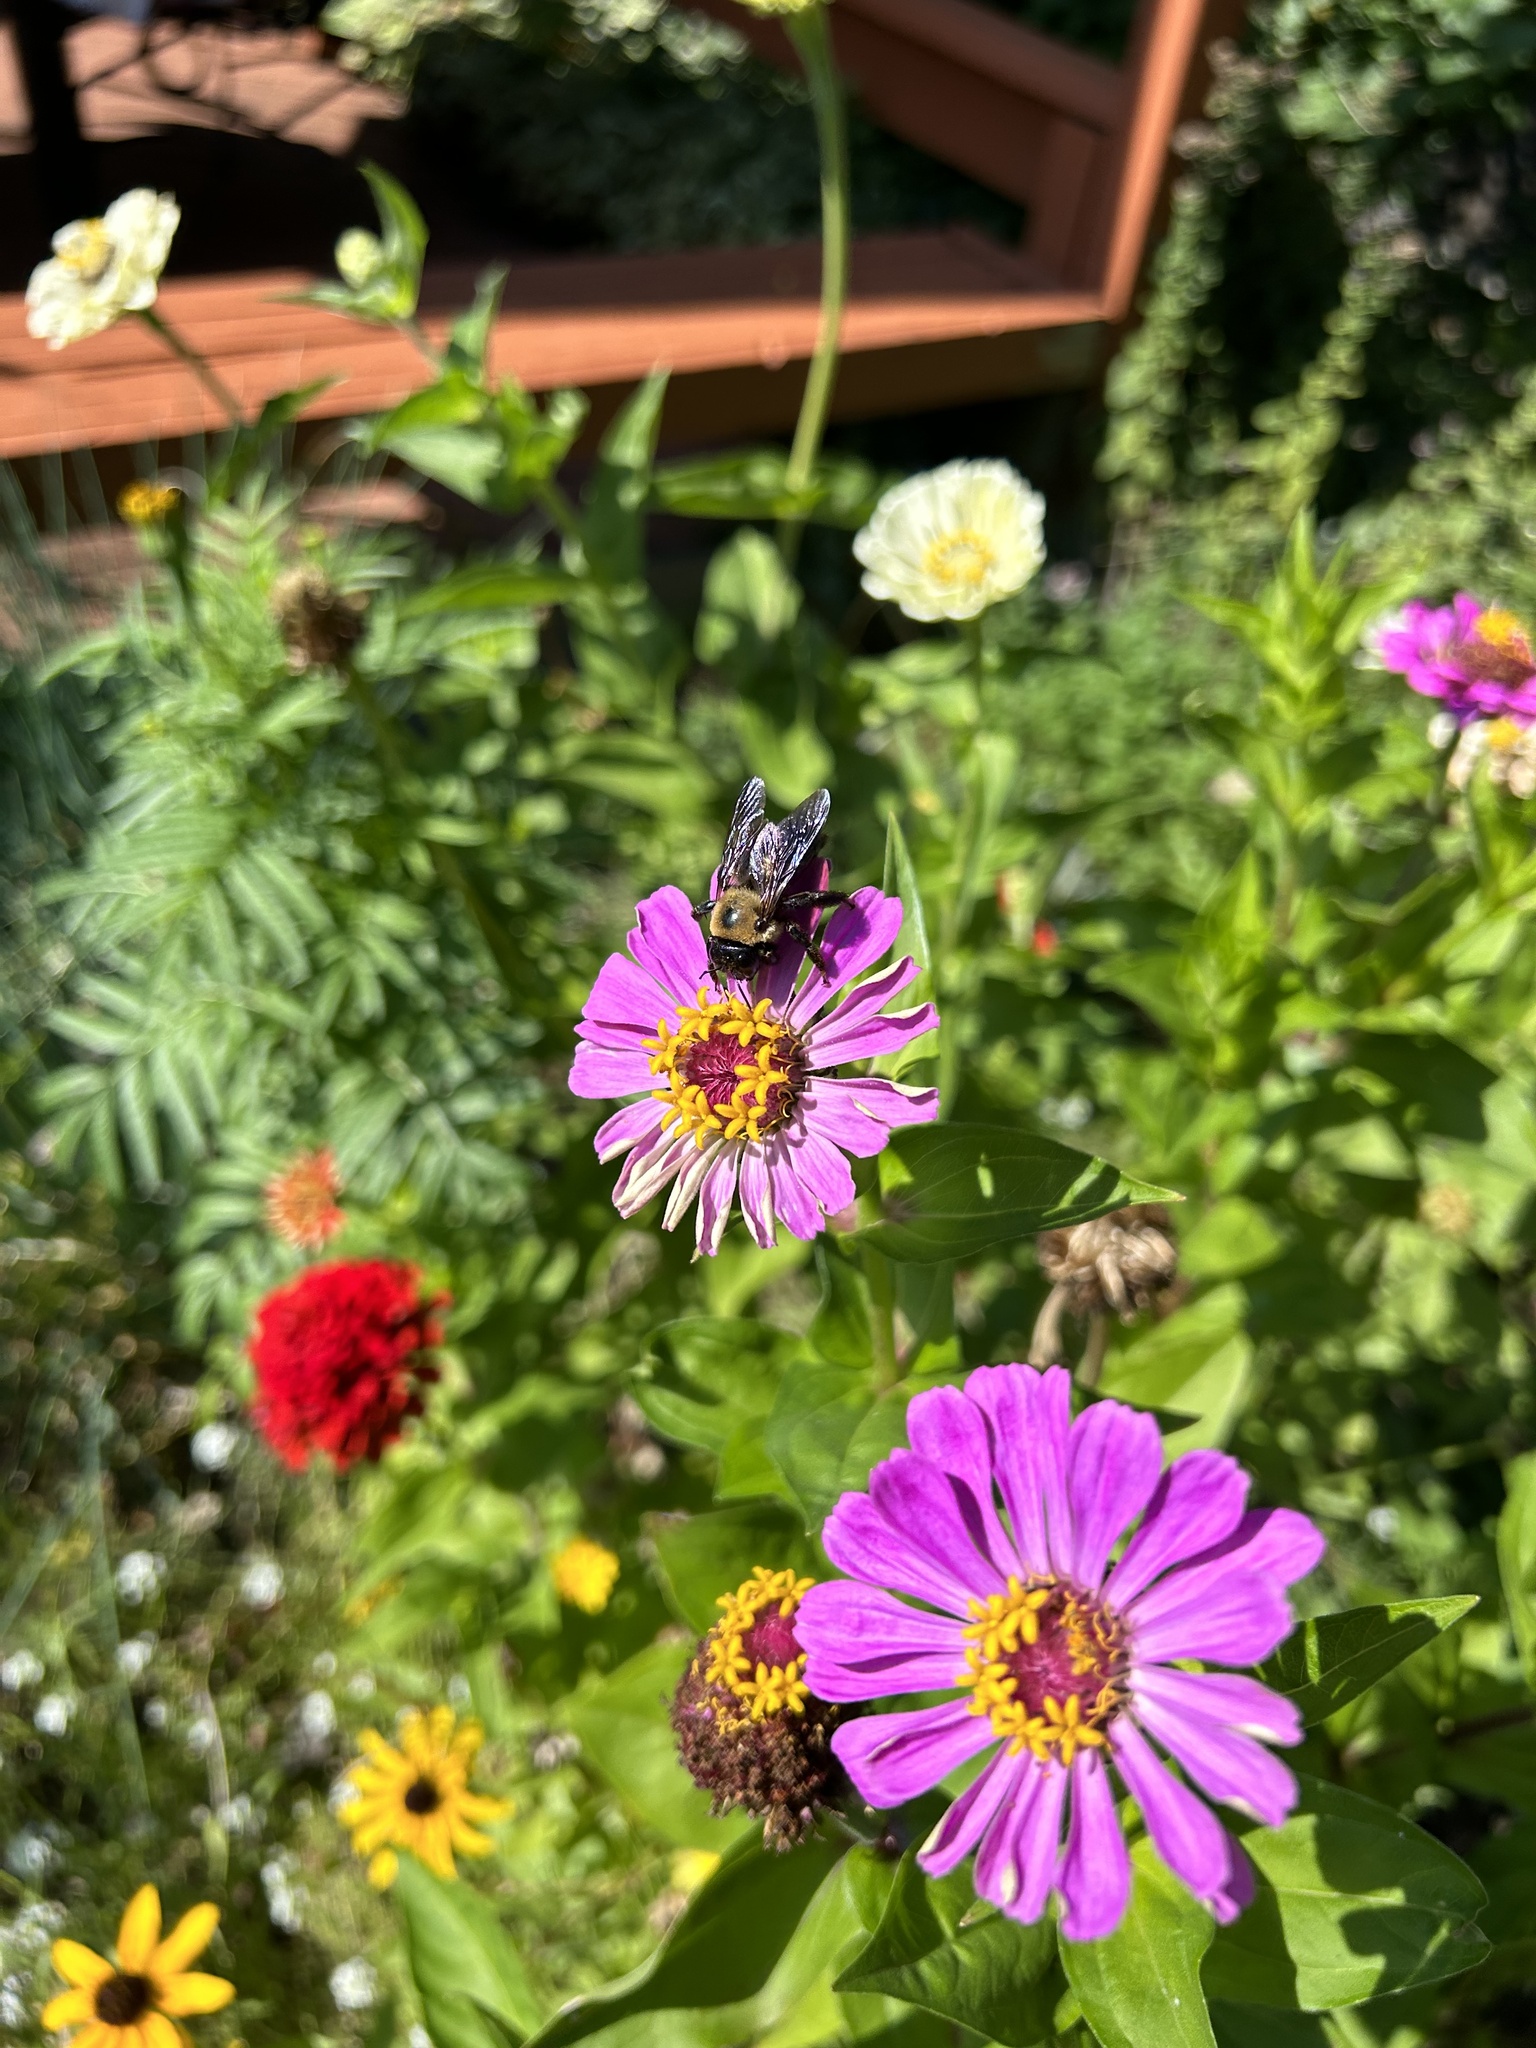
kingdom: Animalia
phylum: Arthropoda
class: Insecta
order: Hymenoptera
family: Apidae
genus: Xylocopa
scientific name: Xylocopa virginica
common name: Carpenter bee
